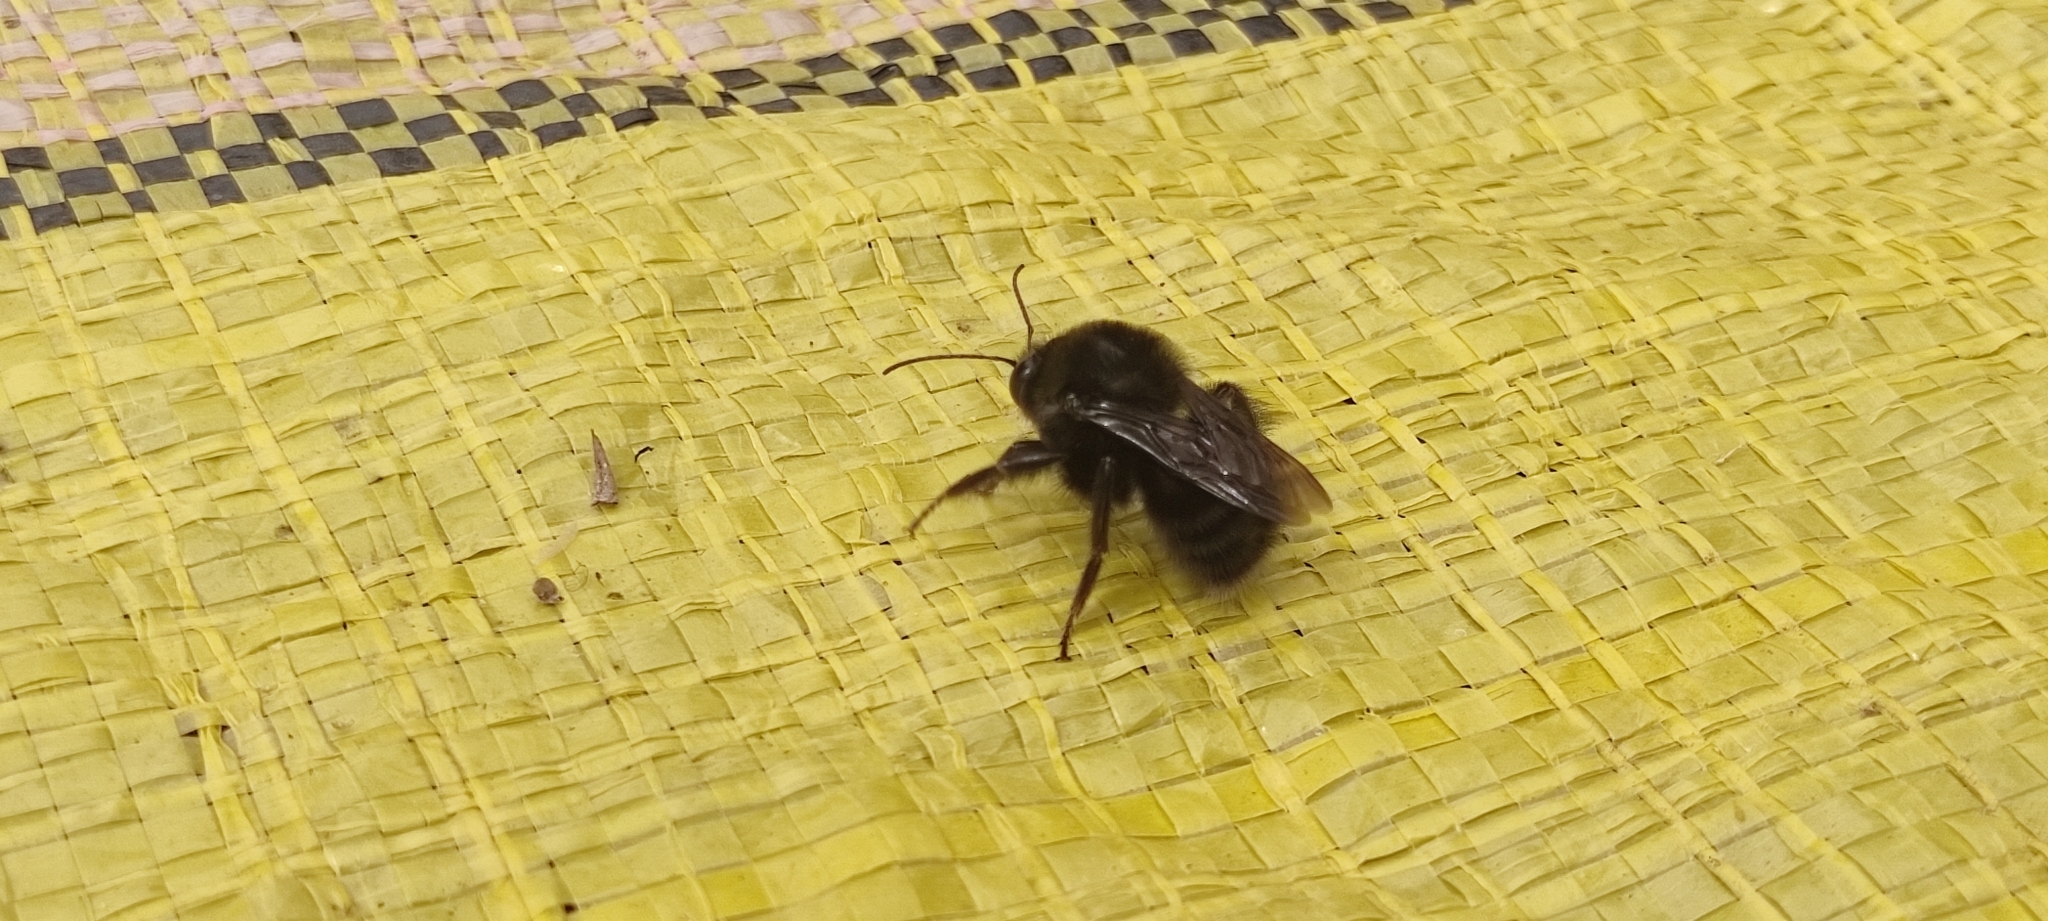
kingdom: Animalia
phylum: Arthropoda
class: Insecta
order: Hymenoptera
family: Apidae
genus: Bombus
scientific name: Bombus melaleucus
